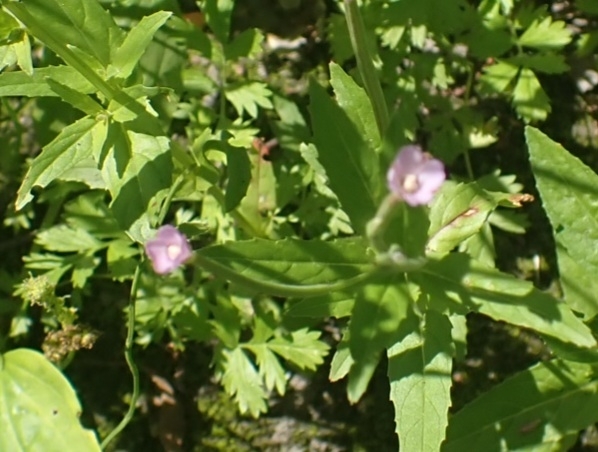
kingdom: Plantae
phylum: Tracheophyta
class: Magnoliopsida
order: Myrtales
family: Onagraceae
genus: Epilobium
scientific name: Epilobium ciliatum
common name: American willowherb
